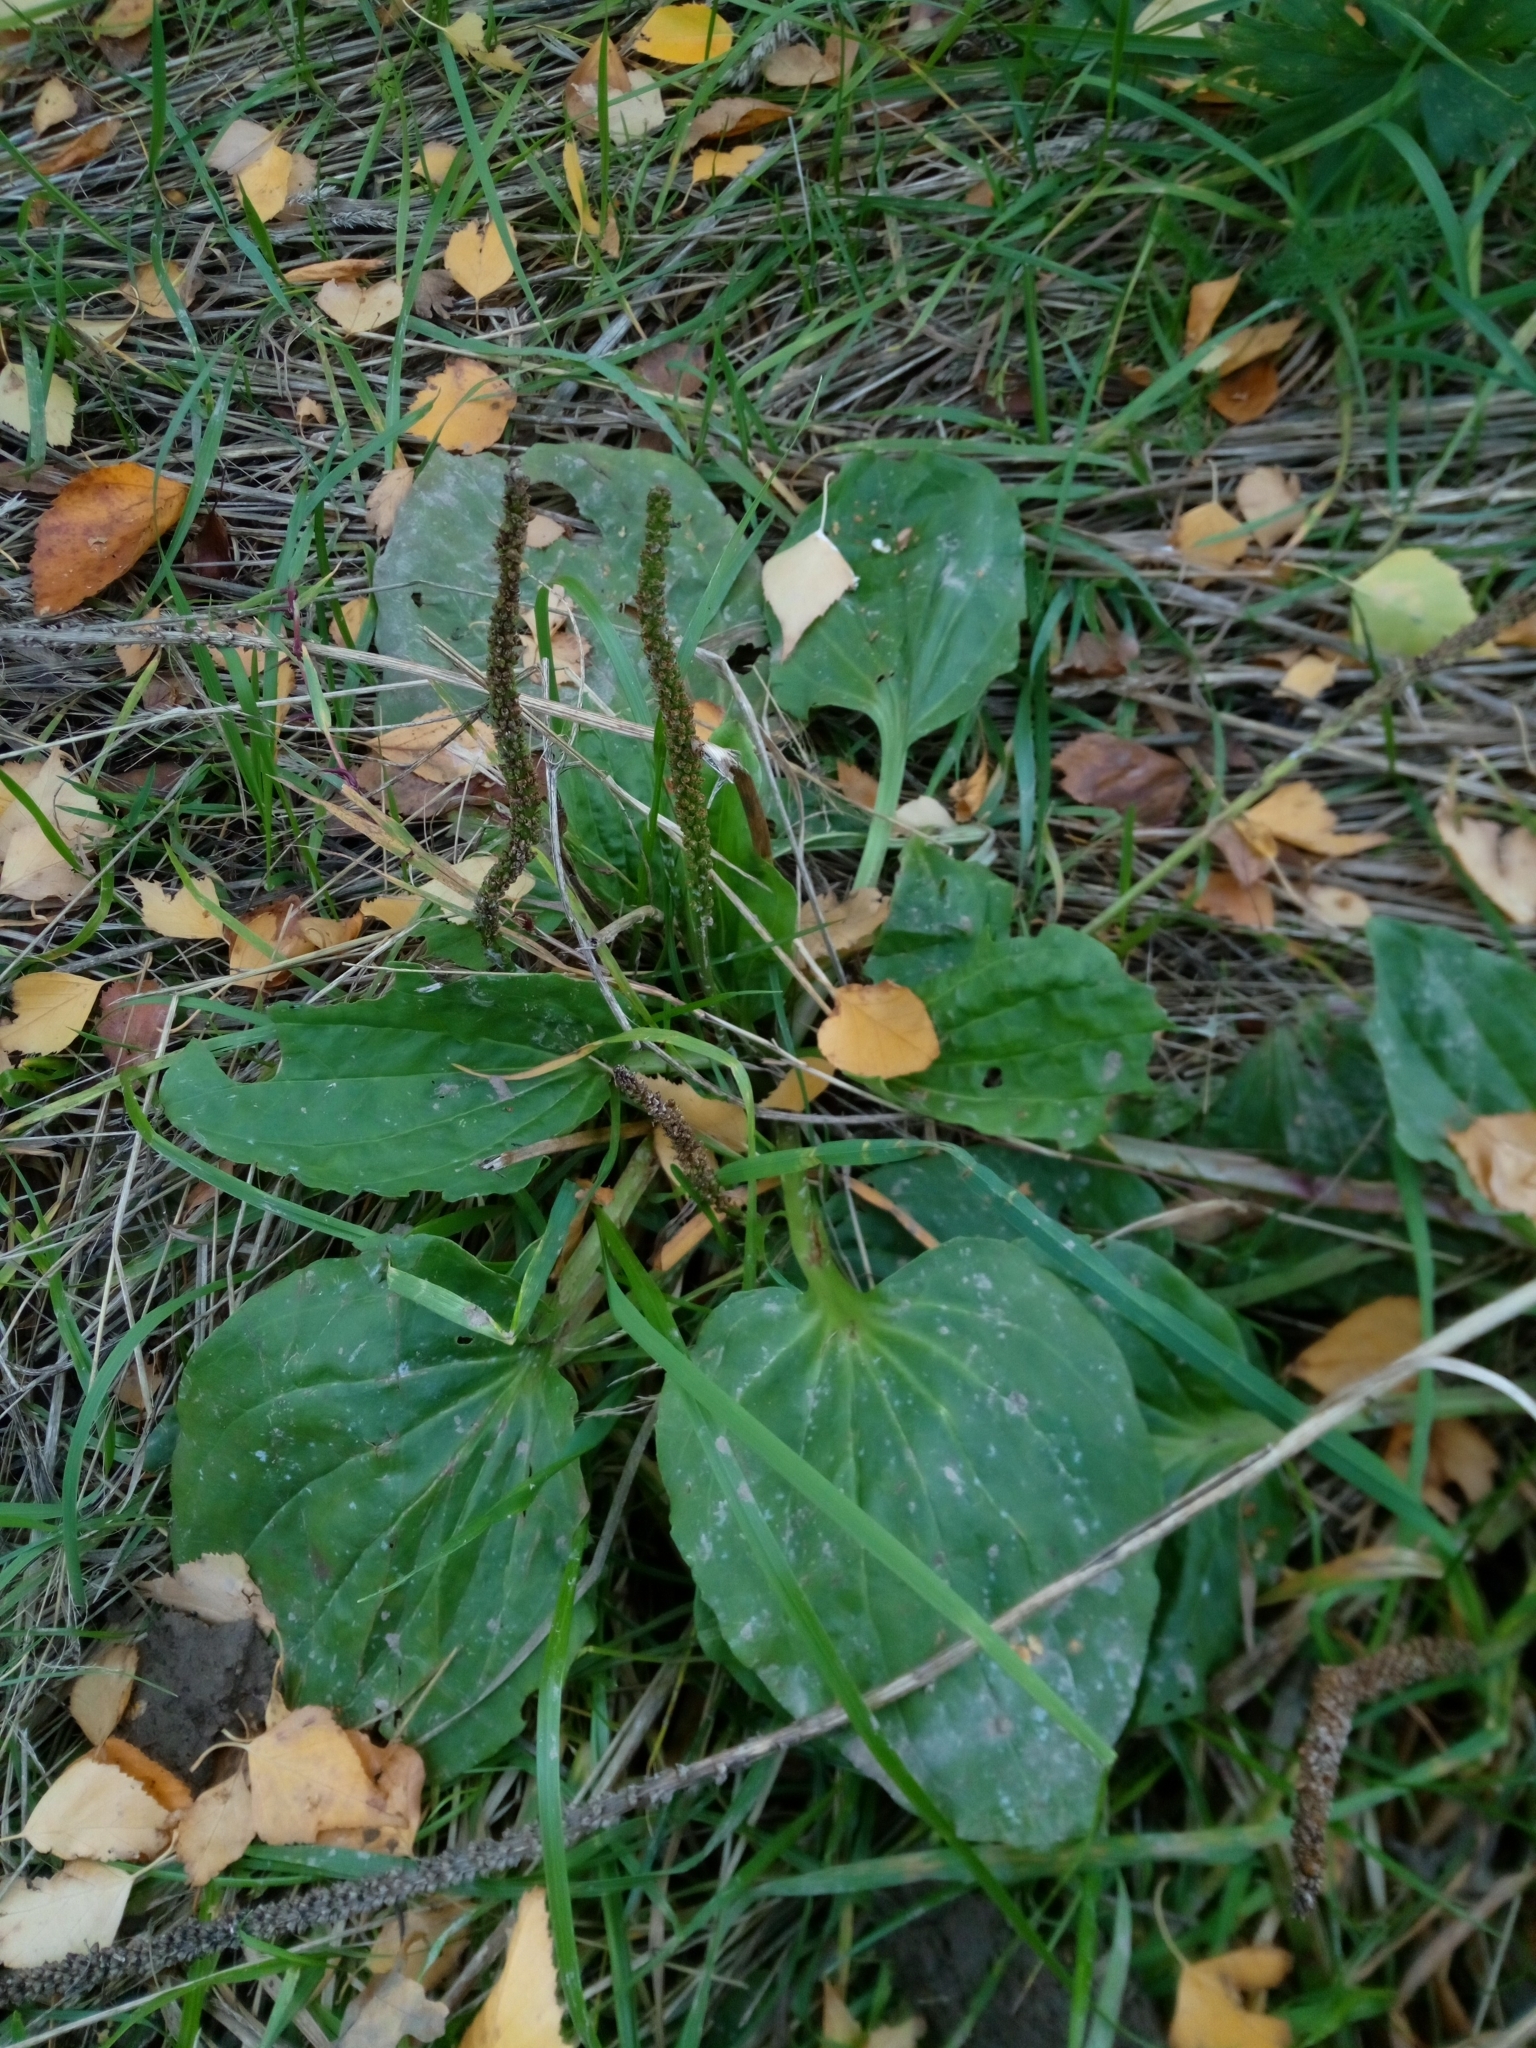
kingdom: Plantae
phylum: Tracheophyta
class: Magnoliopsida
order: Lamiales
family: Plantaginaceae
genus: Plantago
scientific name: Plantago major
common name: Common plantain
